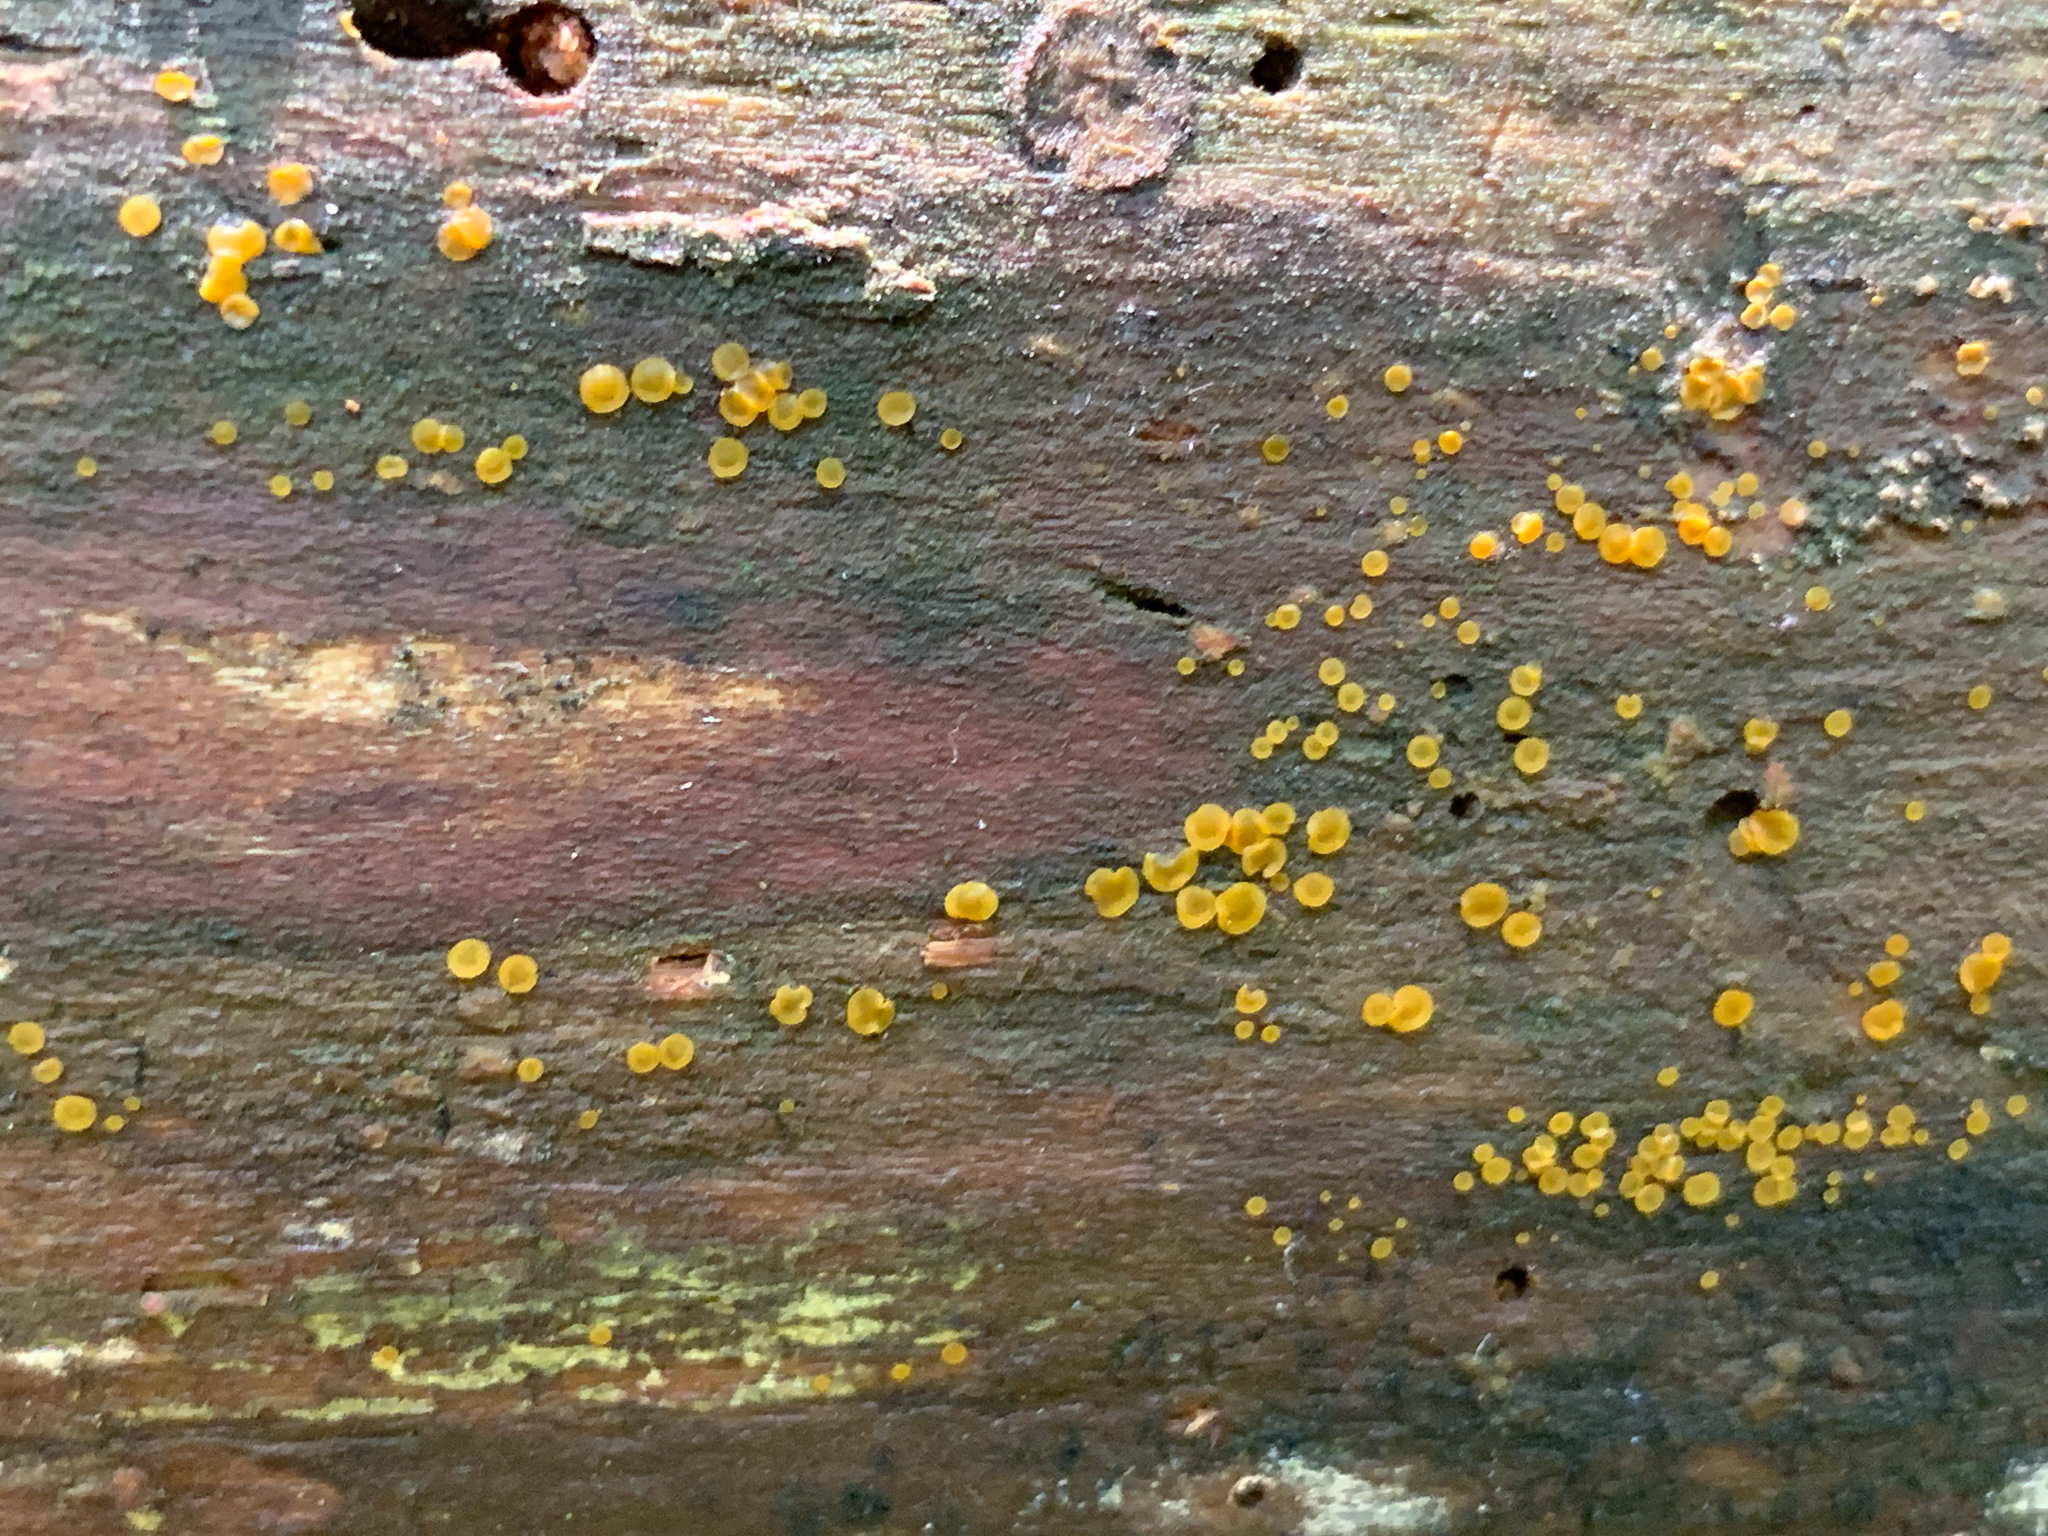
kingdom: Fungi
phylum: Ascomycota
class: Orbiliomycetes
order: Orbiliales
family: Orbiliaceae
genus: Orbilia
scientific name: Orbilia xanthostigma
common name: Common glasscup
